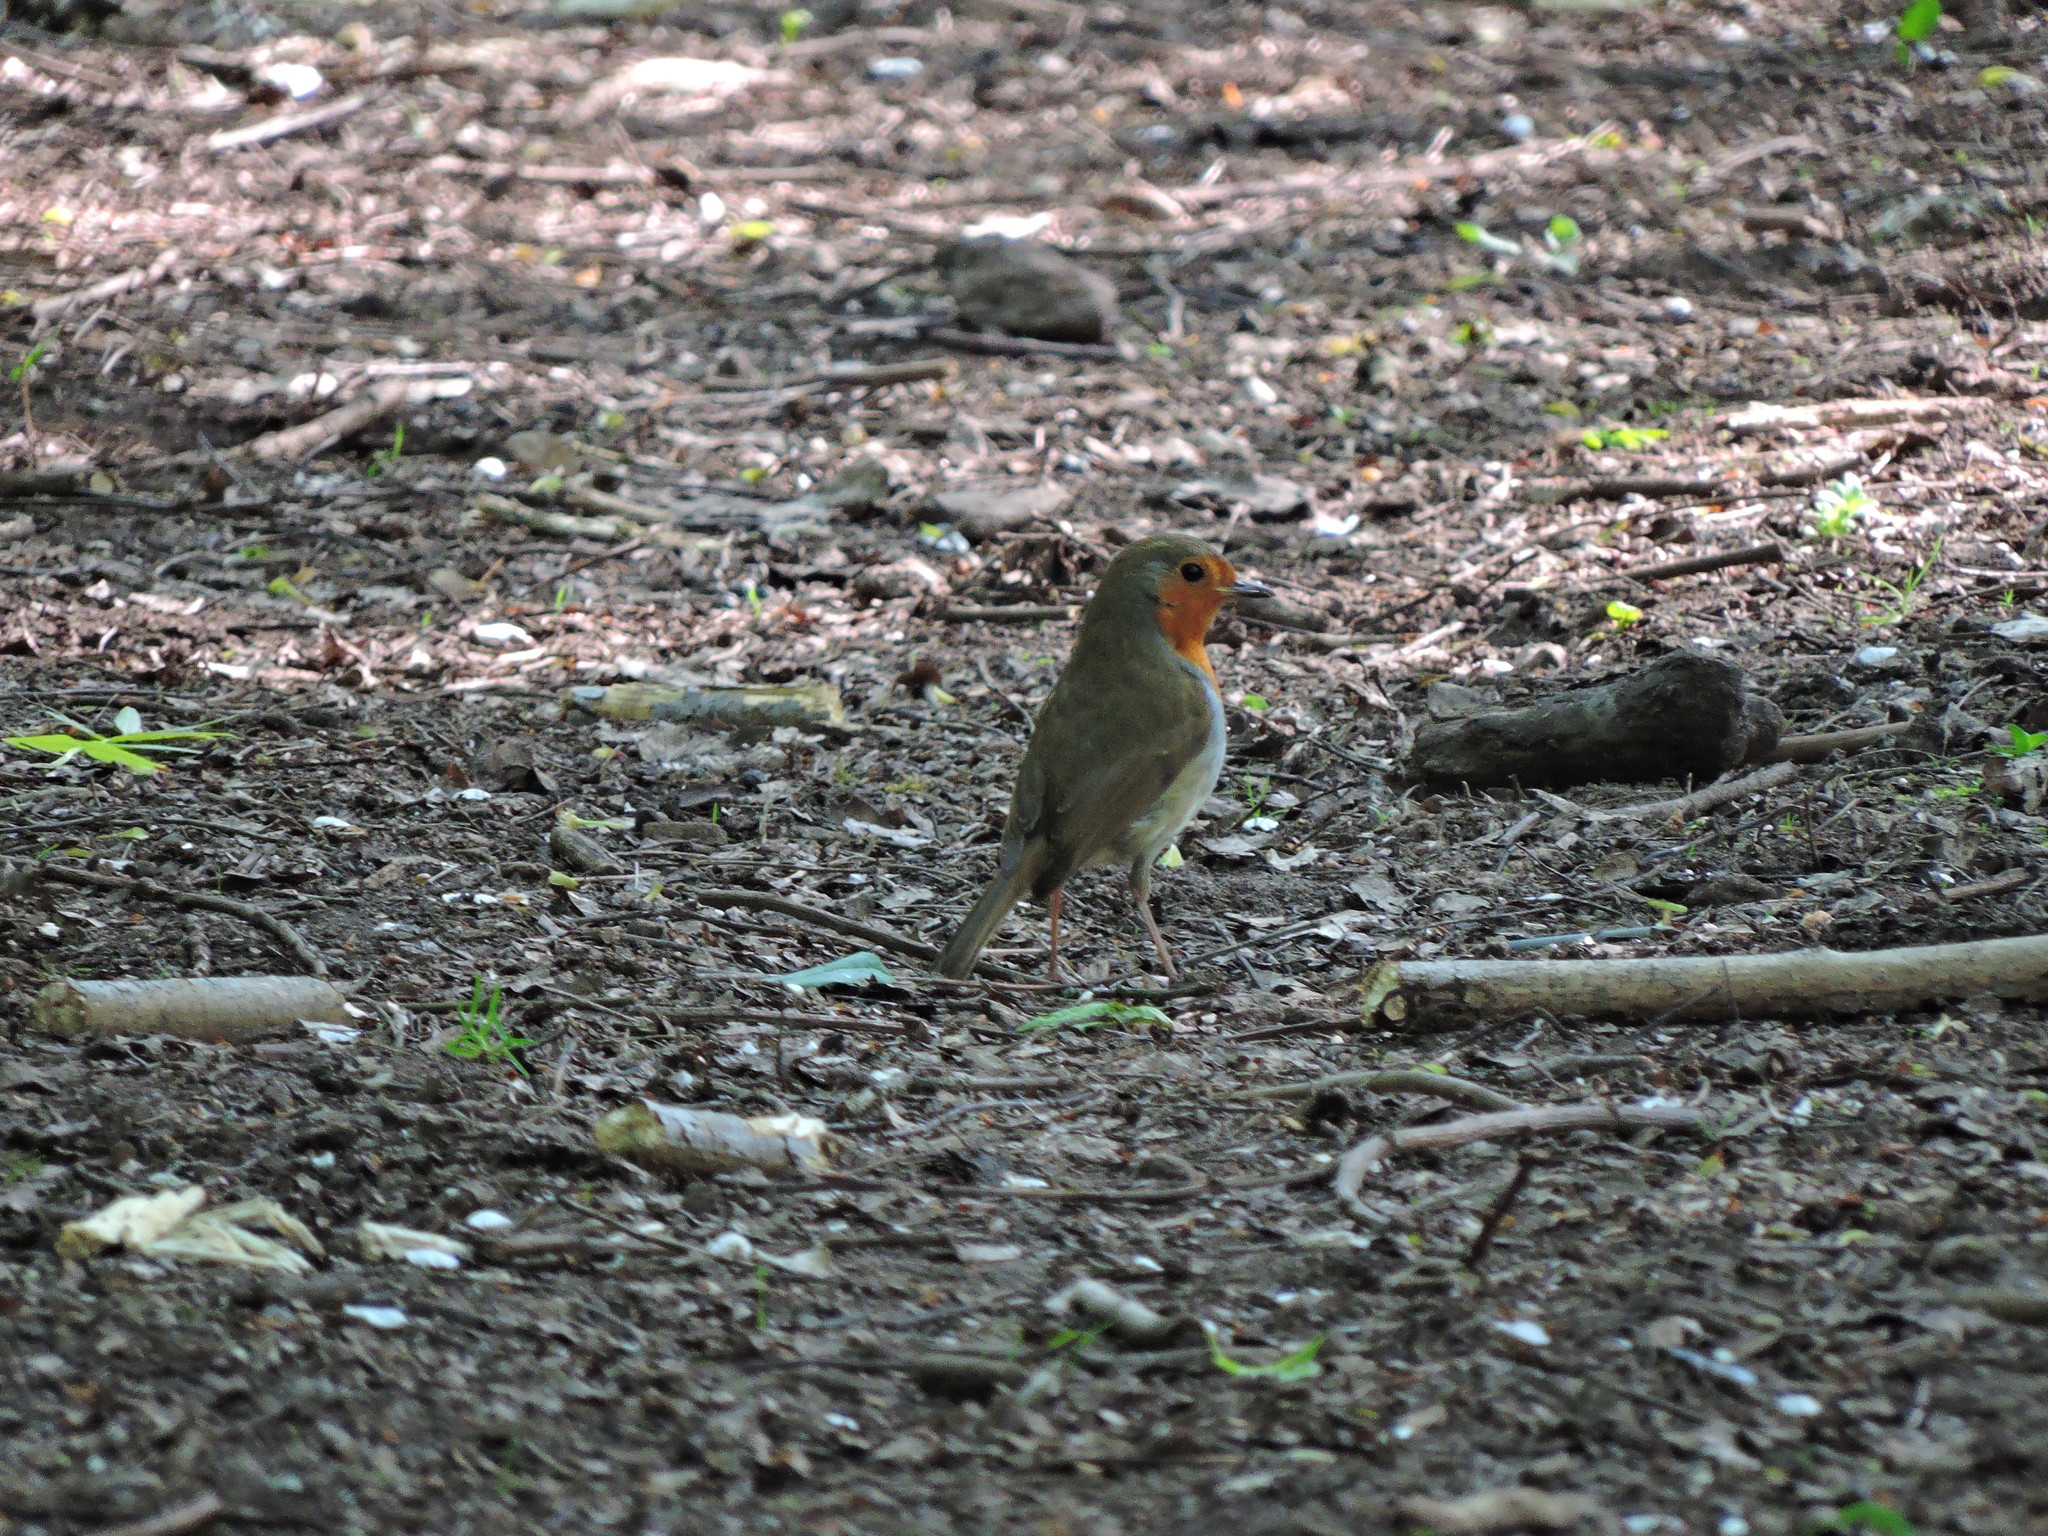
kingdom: Animalia
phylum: Chordata
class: Aves
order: Passeriformes
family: Muscicapidae
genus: Erithacus
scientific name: Erithacus rubecula
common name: European robin
